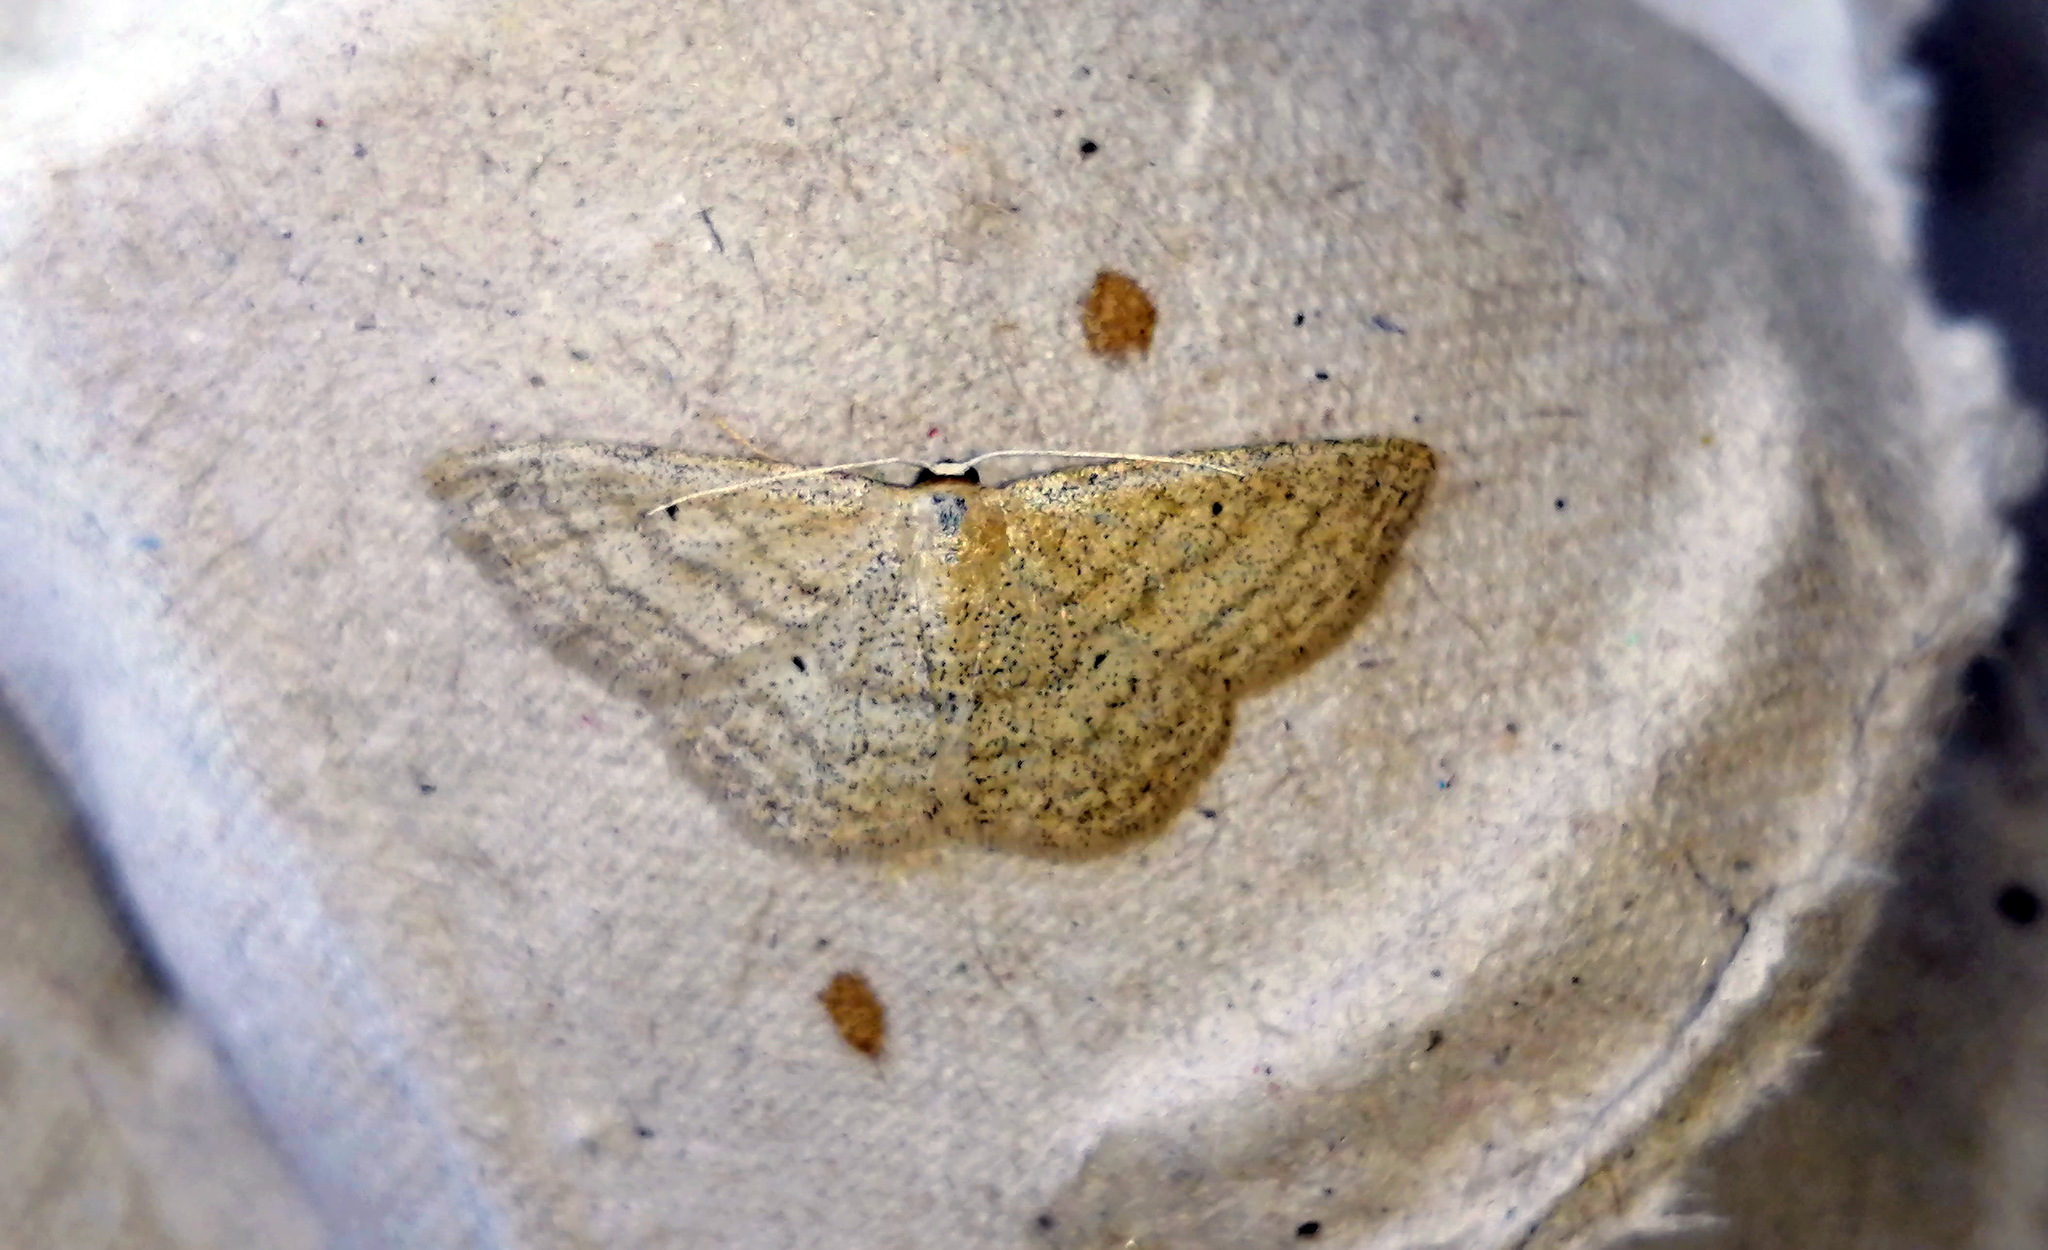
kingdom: Animalia
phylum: Arthropoda
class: Insecta
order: Lepidoptera
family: Geometridae
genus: Scopula
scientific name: Scopula inductata
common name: Soft-lined wave
